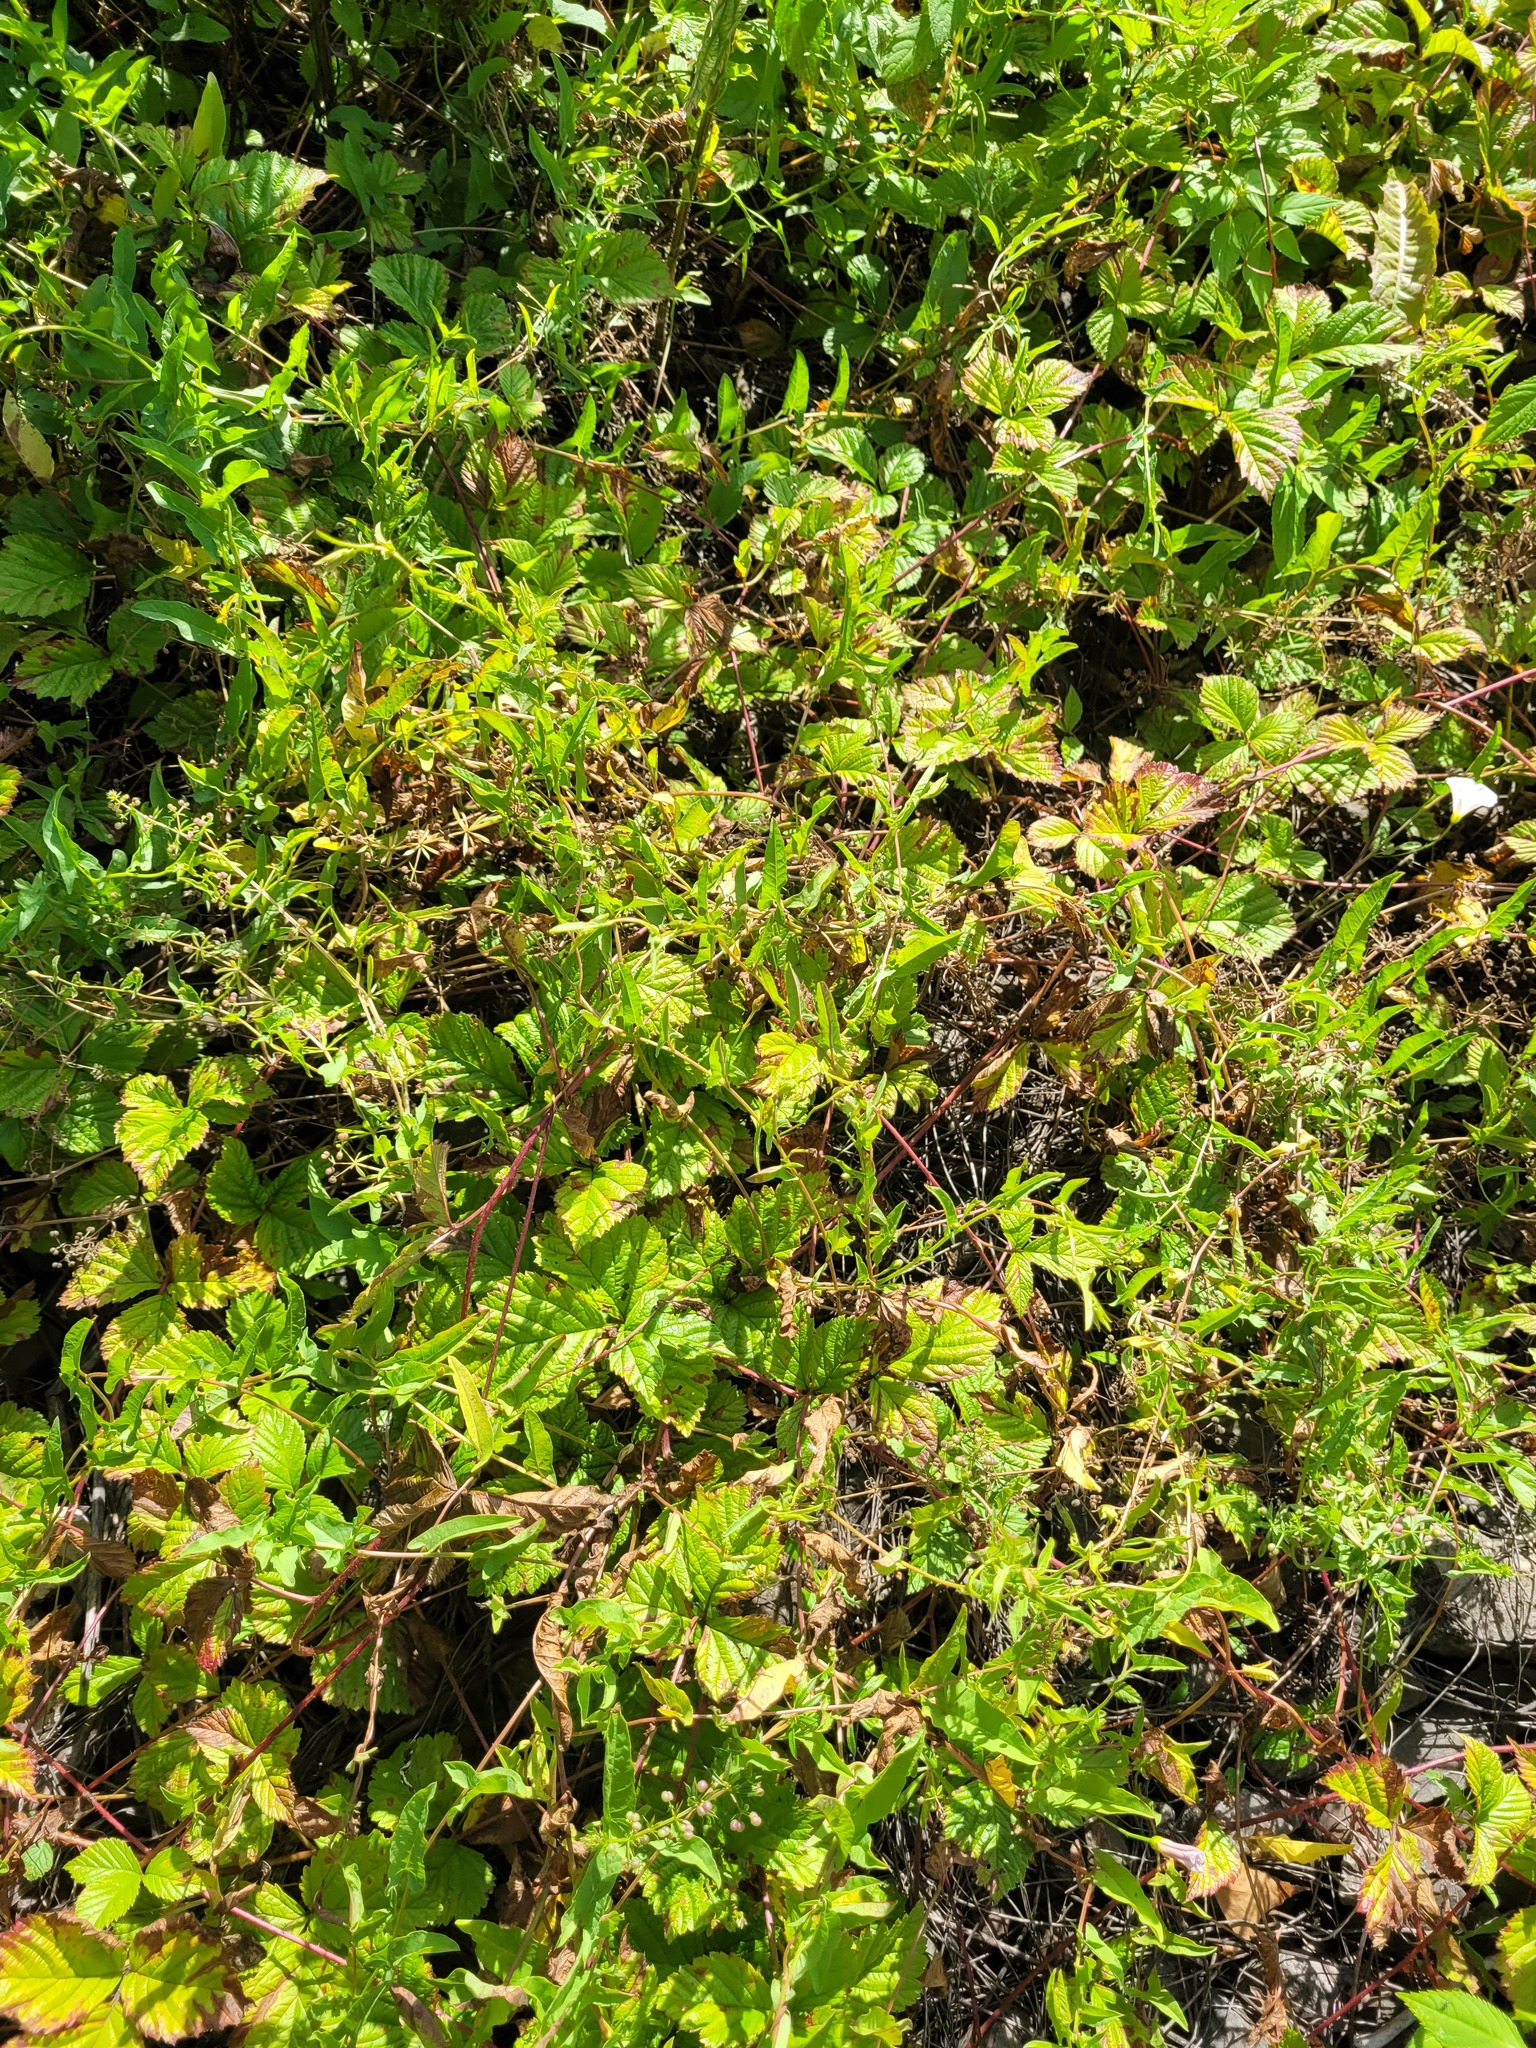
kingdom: Plantae
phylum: Tracheophyta
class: Magnoliopsida
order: Solanales
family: Convolvulaceae
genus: Convolvulus
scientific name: Convolvulus arvensis
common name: Field bindweed
